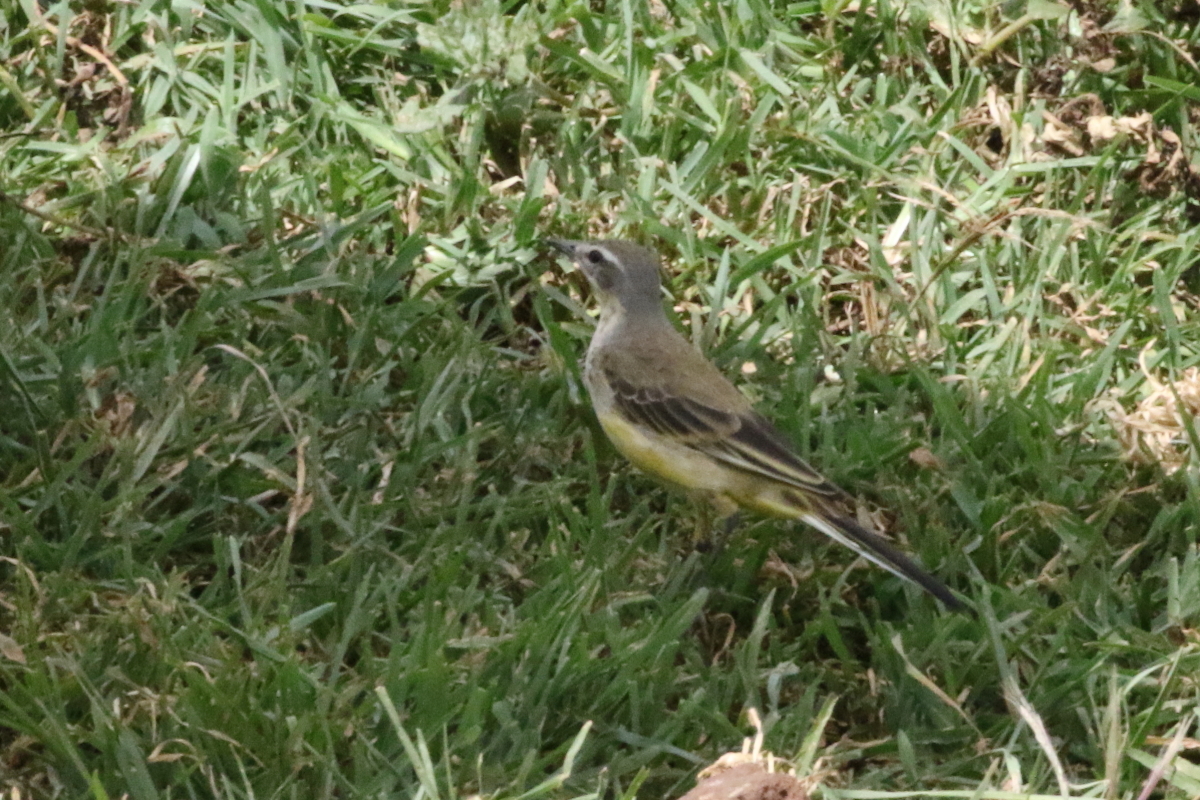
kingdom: Animalia
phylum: Chordata
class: Aves
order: Passeriformes
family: Motacillidae
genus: Motacilla
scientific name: Motacilla flava
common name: Western yellow wagtail
